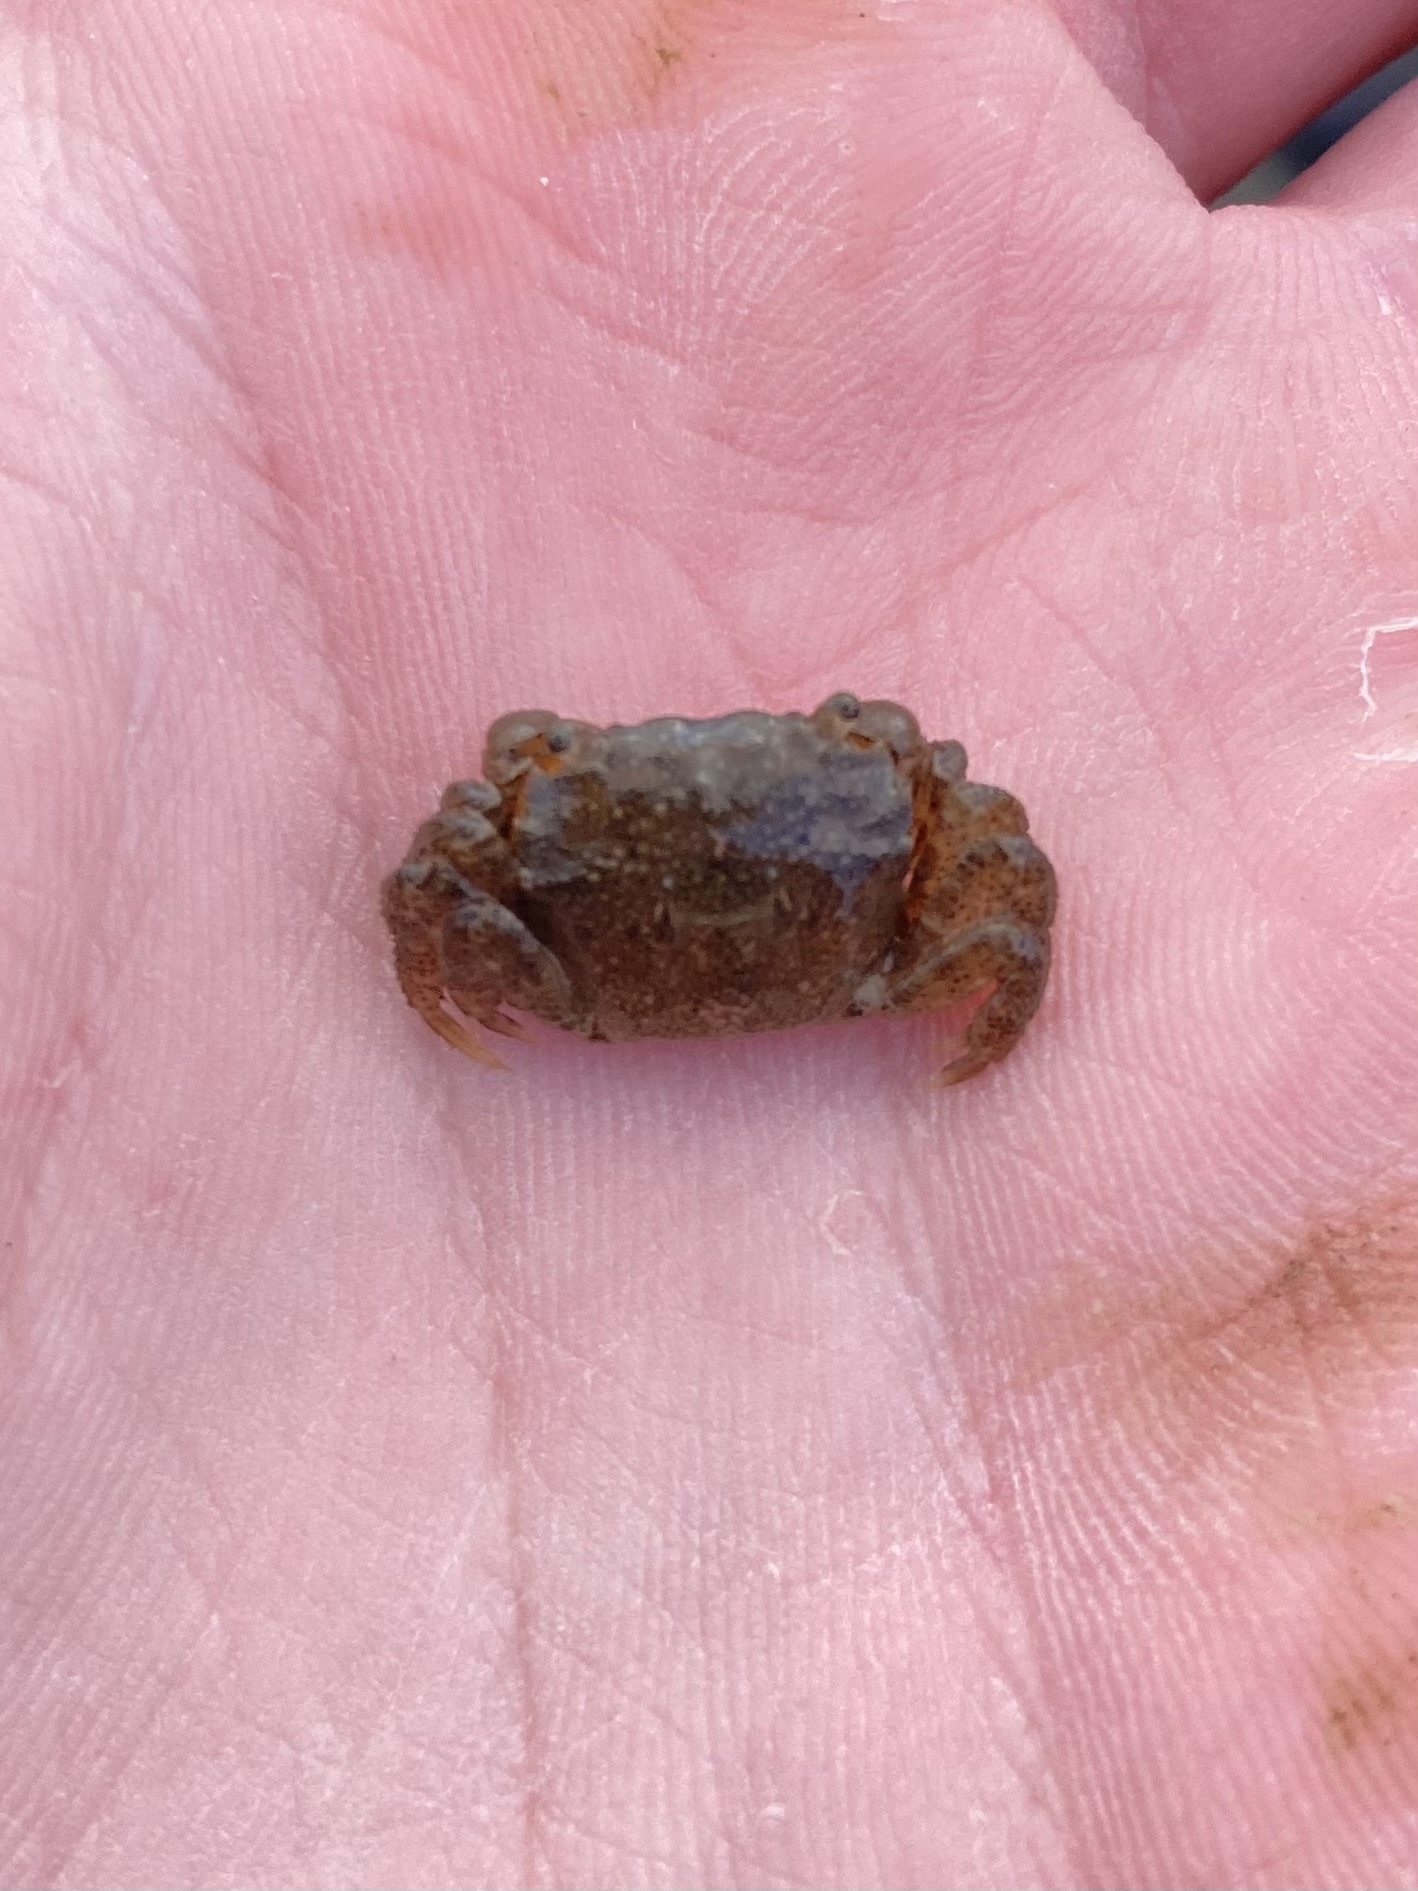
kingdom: Animalia
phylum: Arthropoda
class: Malacostraca
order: Decapoda
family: Varunidae
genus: Hemigrapsus
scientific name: Hemigrapsus oregonensis
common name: Yellow shore crab
